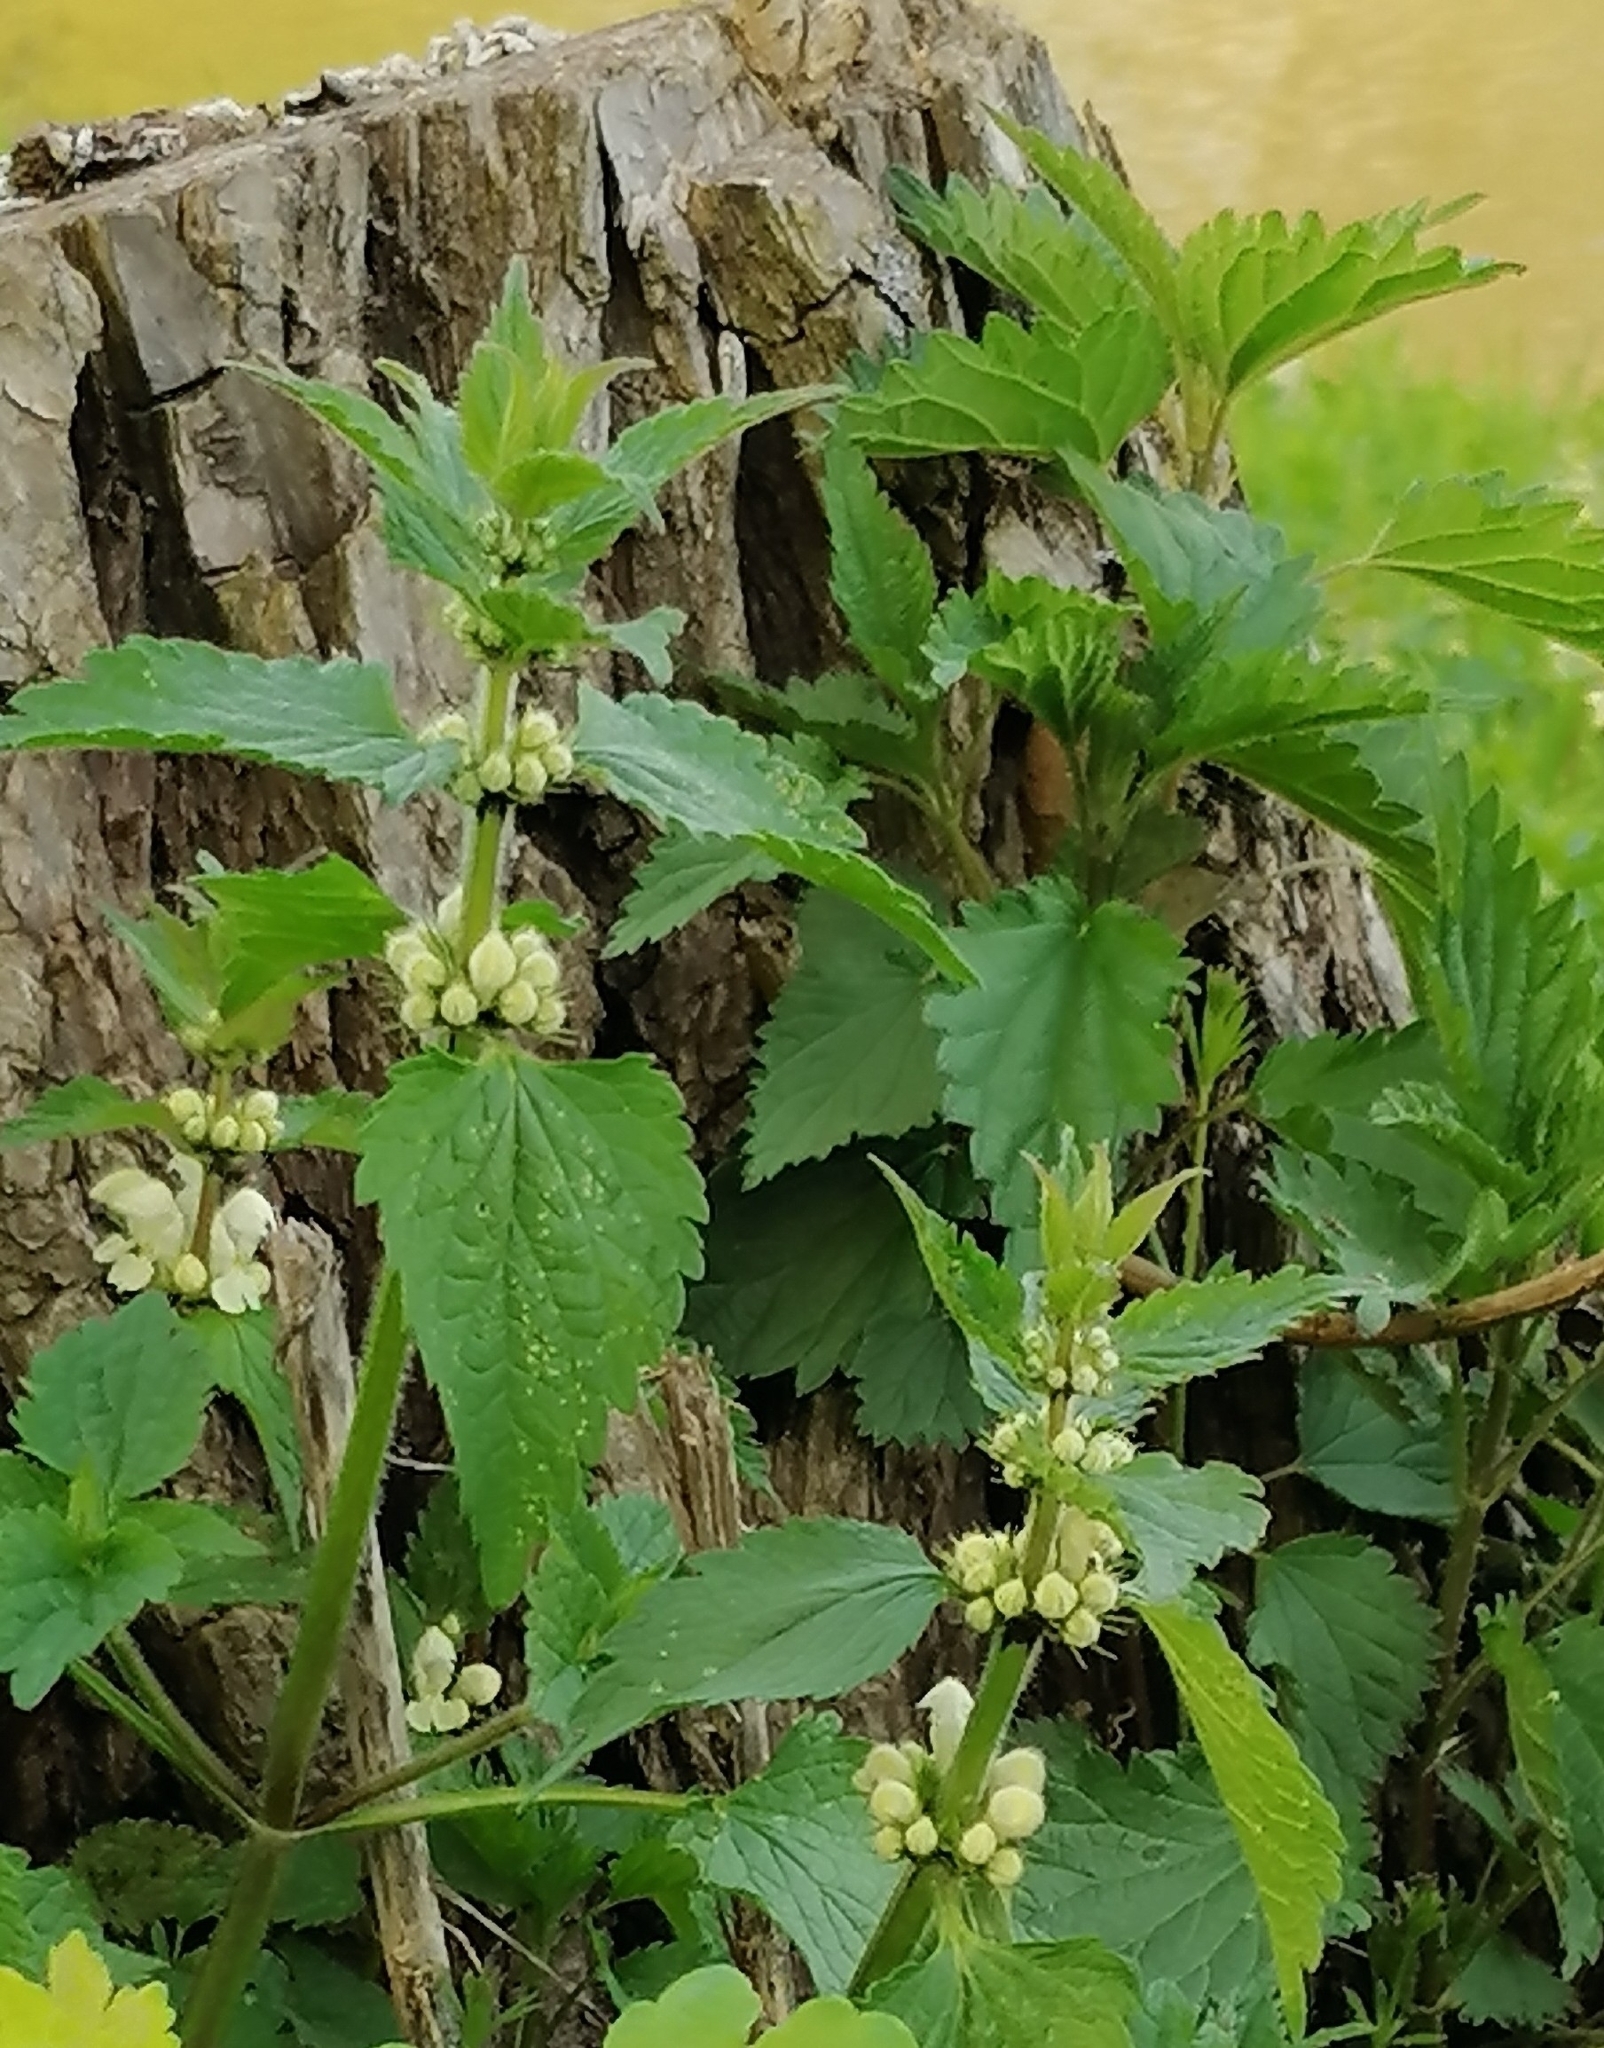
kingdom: Plantae
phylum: Tracheophyta
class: Magnoliopsida
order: Lamiales
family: Lamiaceae
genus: Lamium
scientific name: Lamium album
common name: White dead-nettle
